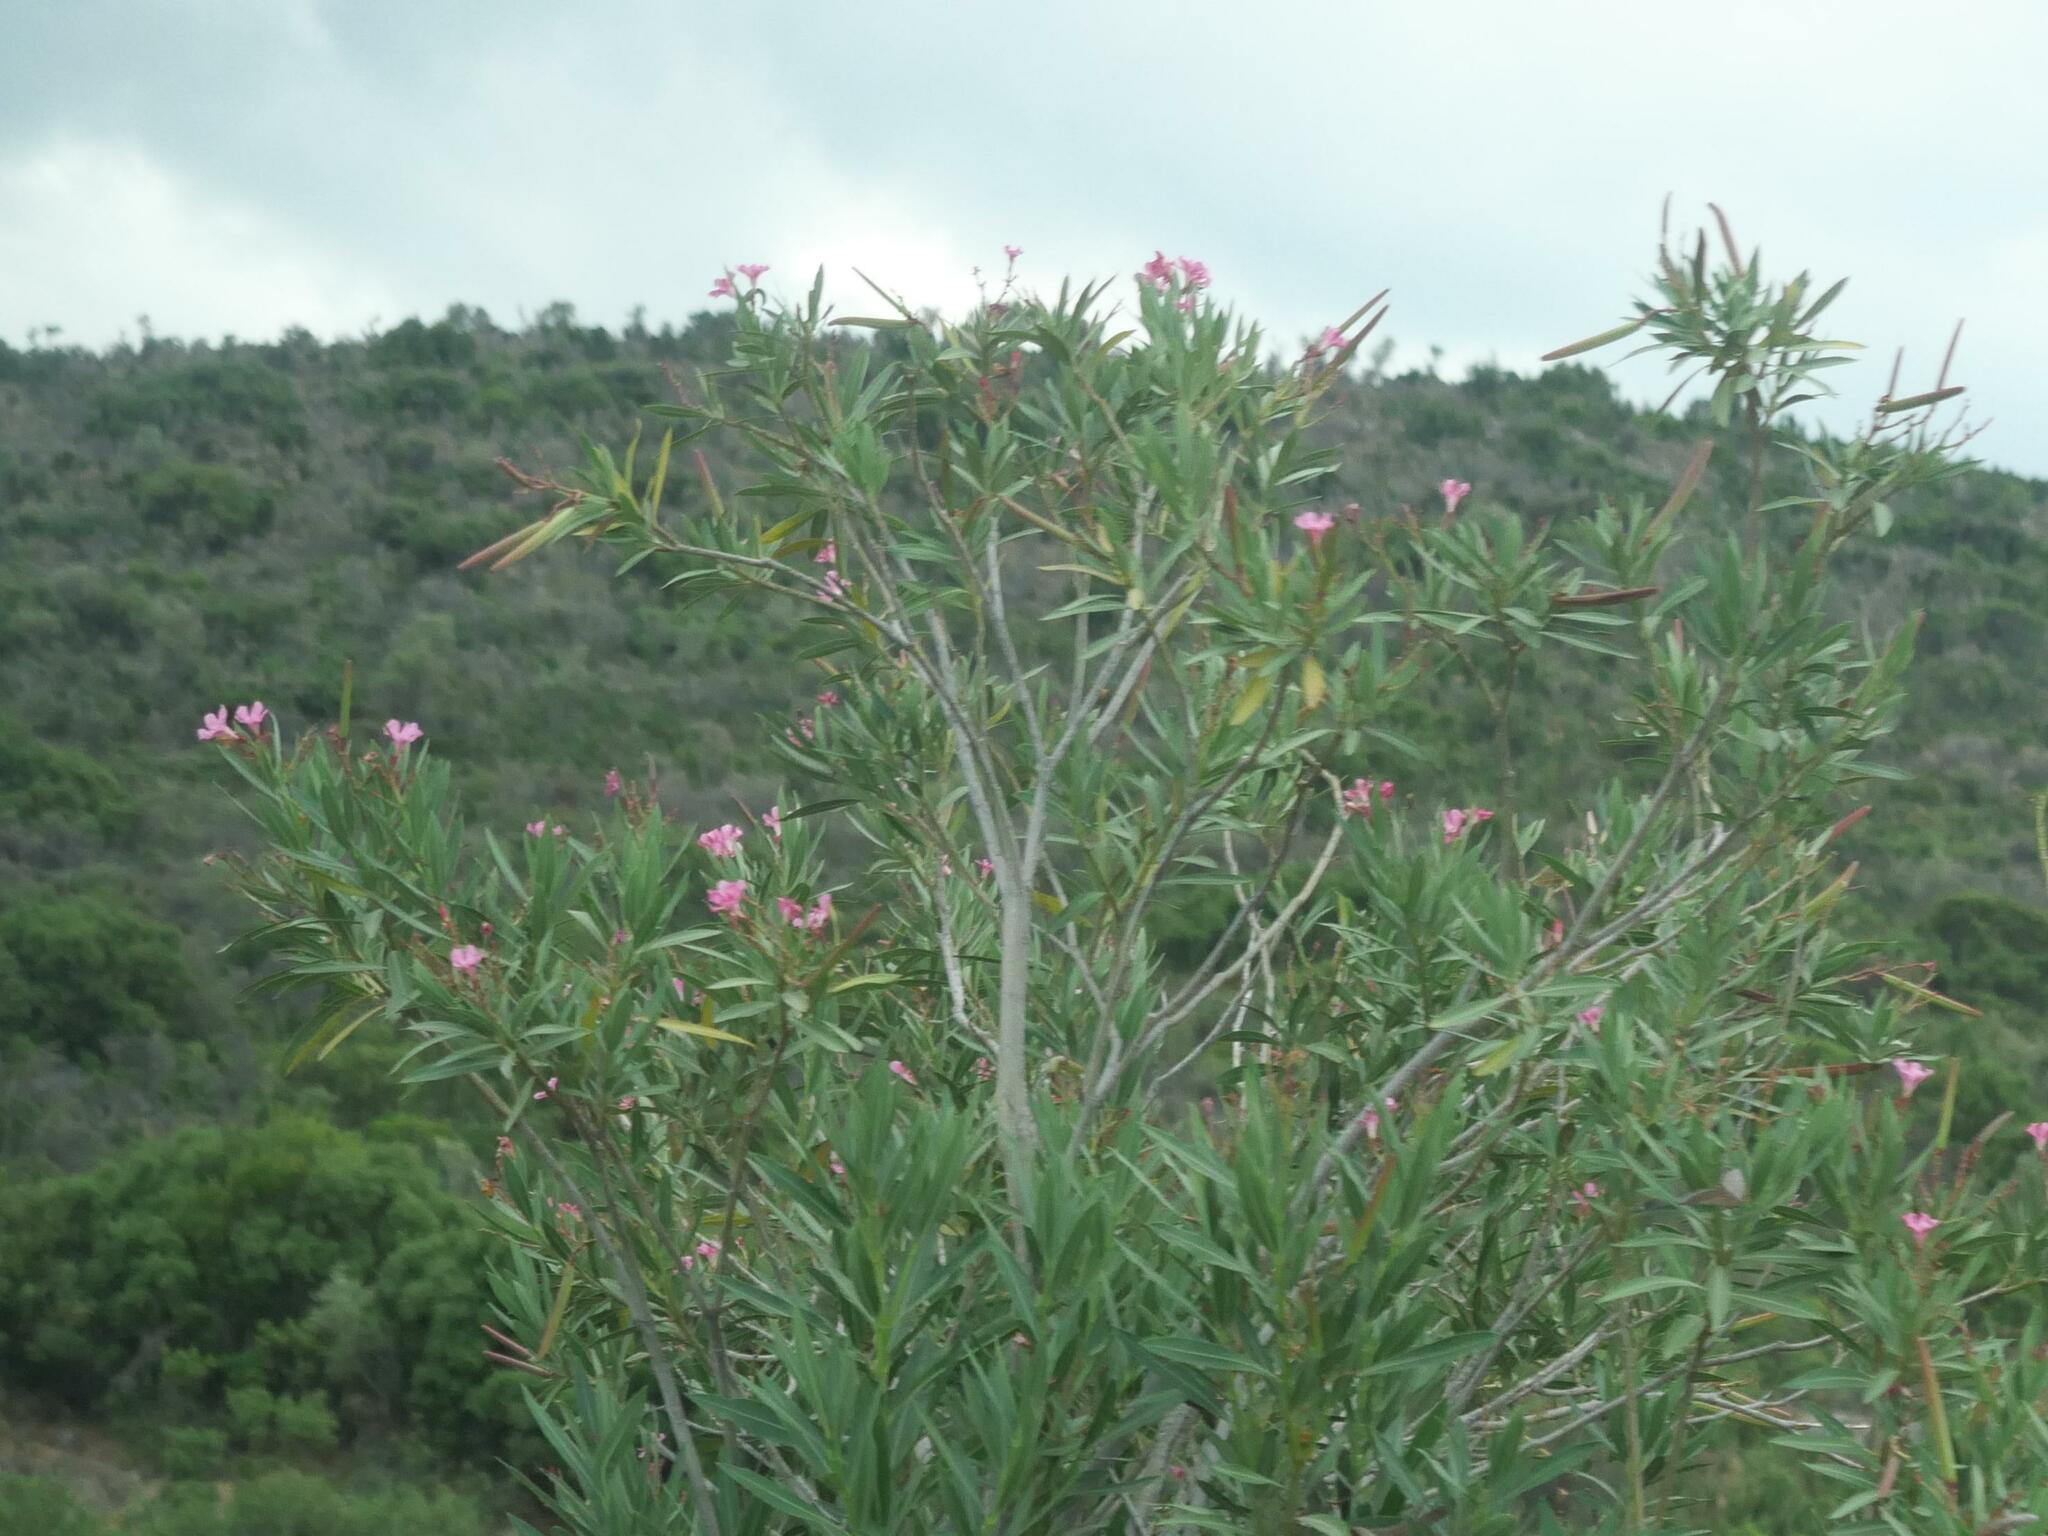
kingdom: Plantae
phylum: Tracheophyta
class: Magnoliopsida
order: Gentianales
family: Apocynaceae
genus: Nerium
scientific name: Nerium oleander
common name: Oleander
